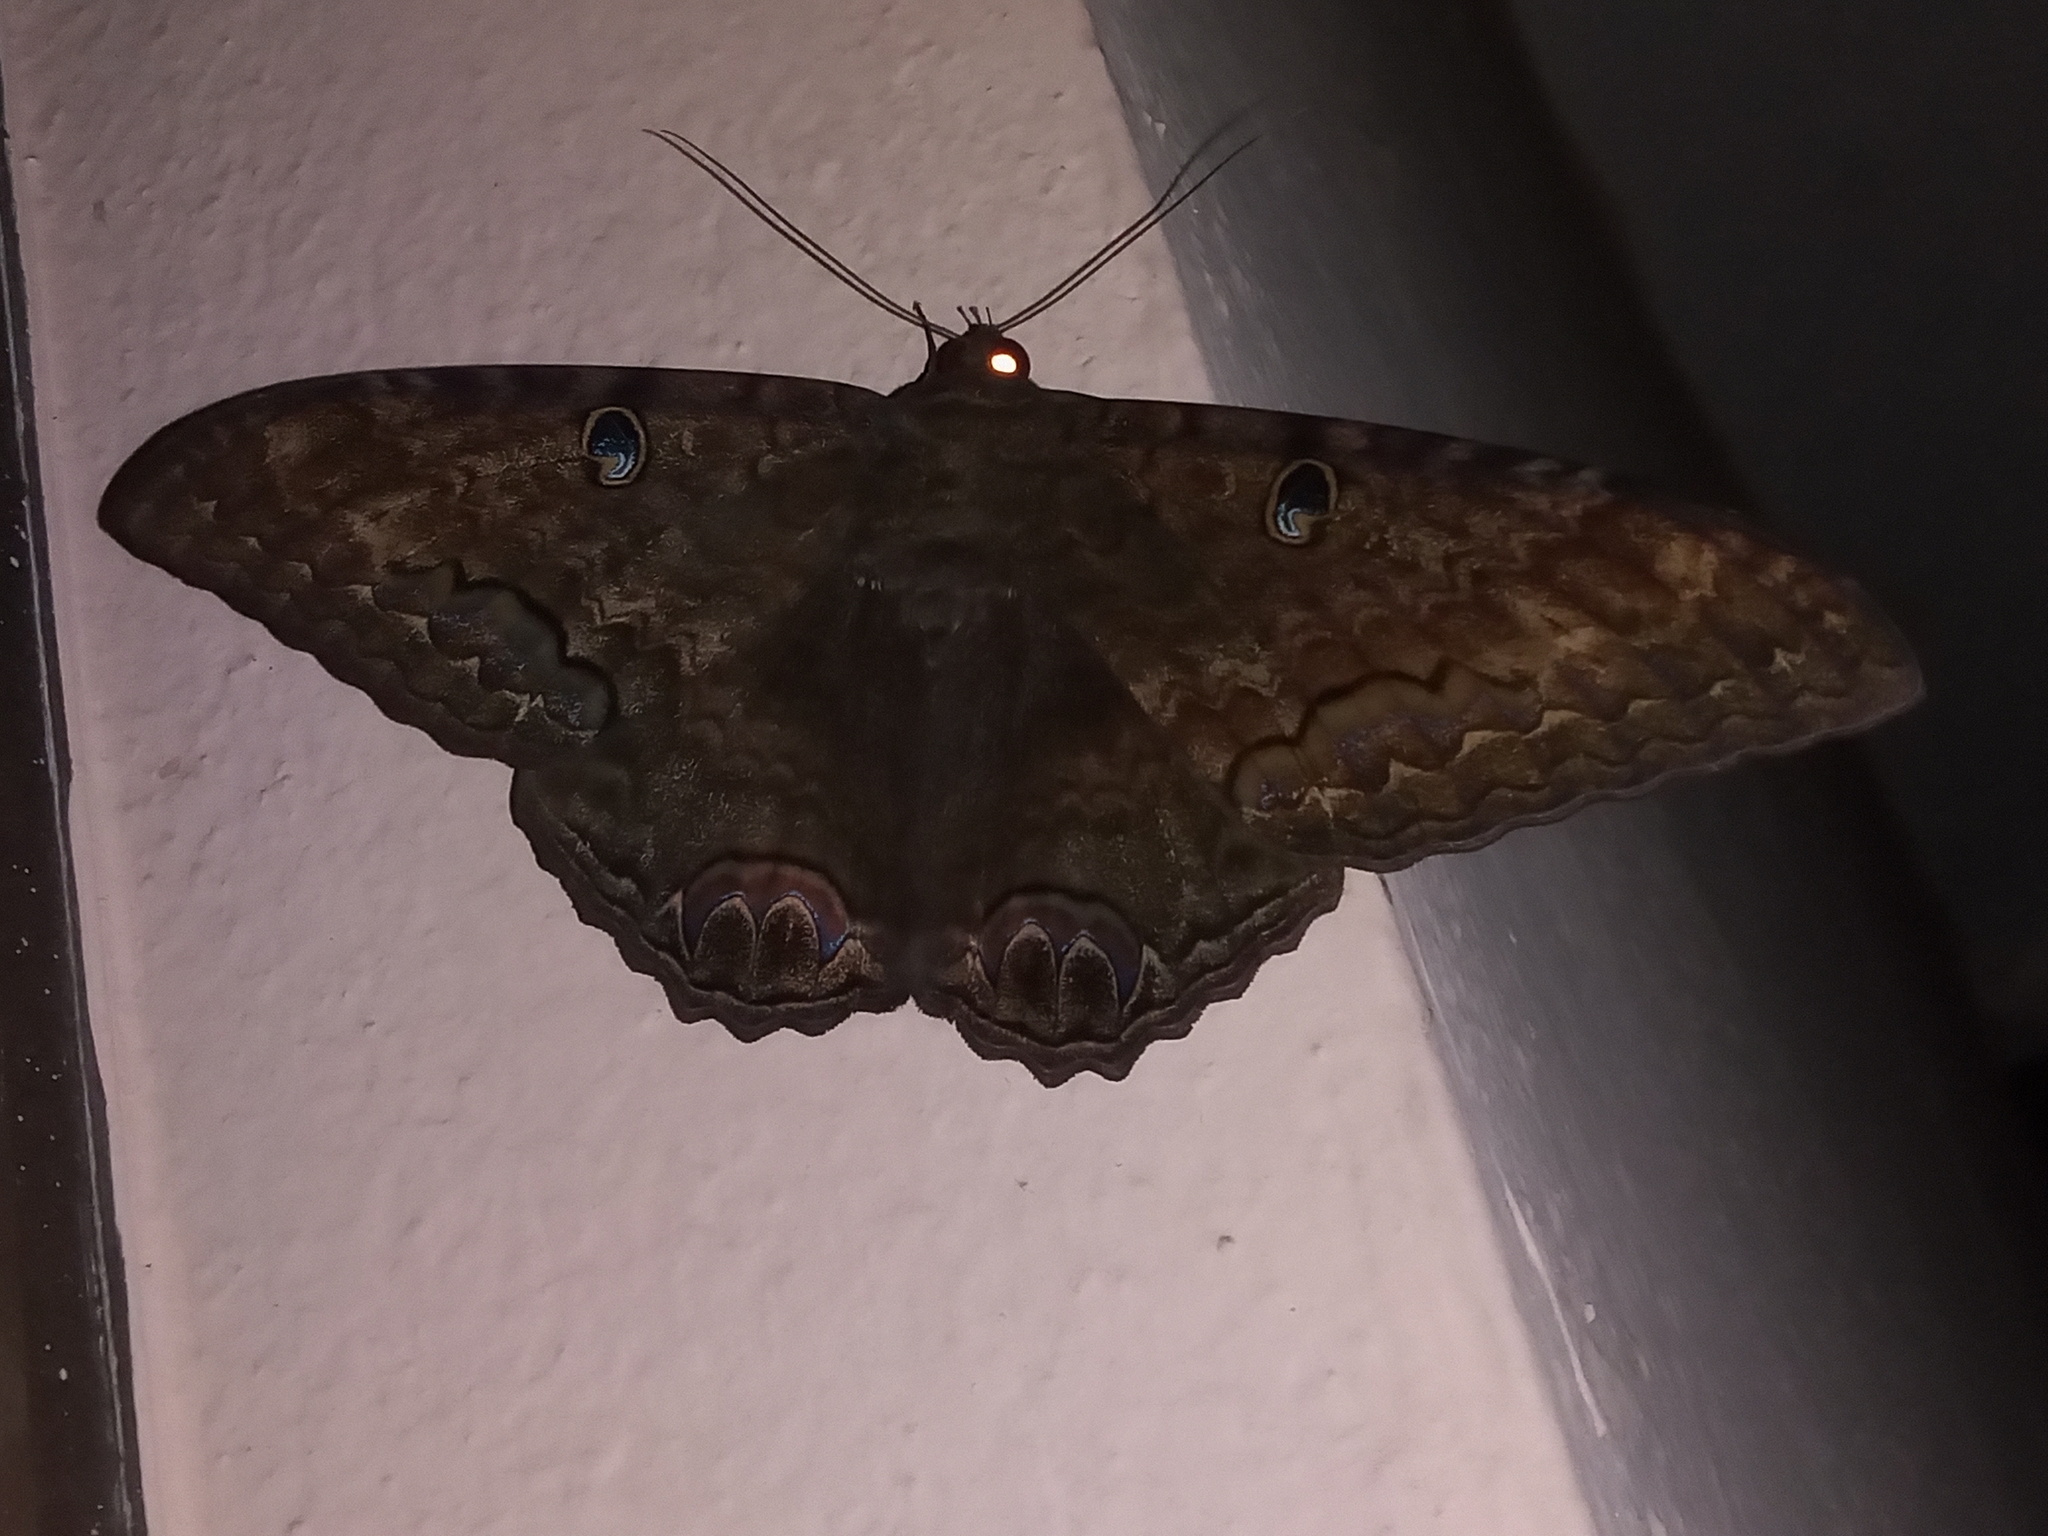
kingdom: Animalia
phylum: Arthropoda
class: Insecta
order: Lepidoptera
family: Erebidae
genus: Ascalapha
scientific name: Ascalapha odorata
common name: Black witch
